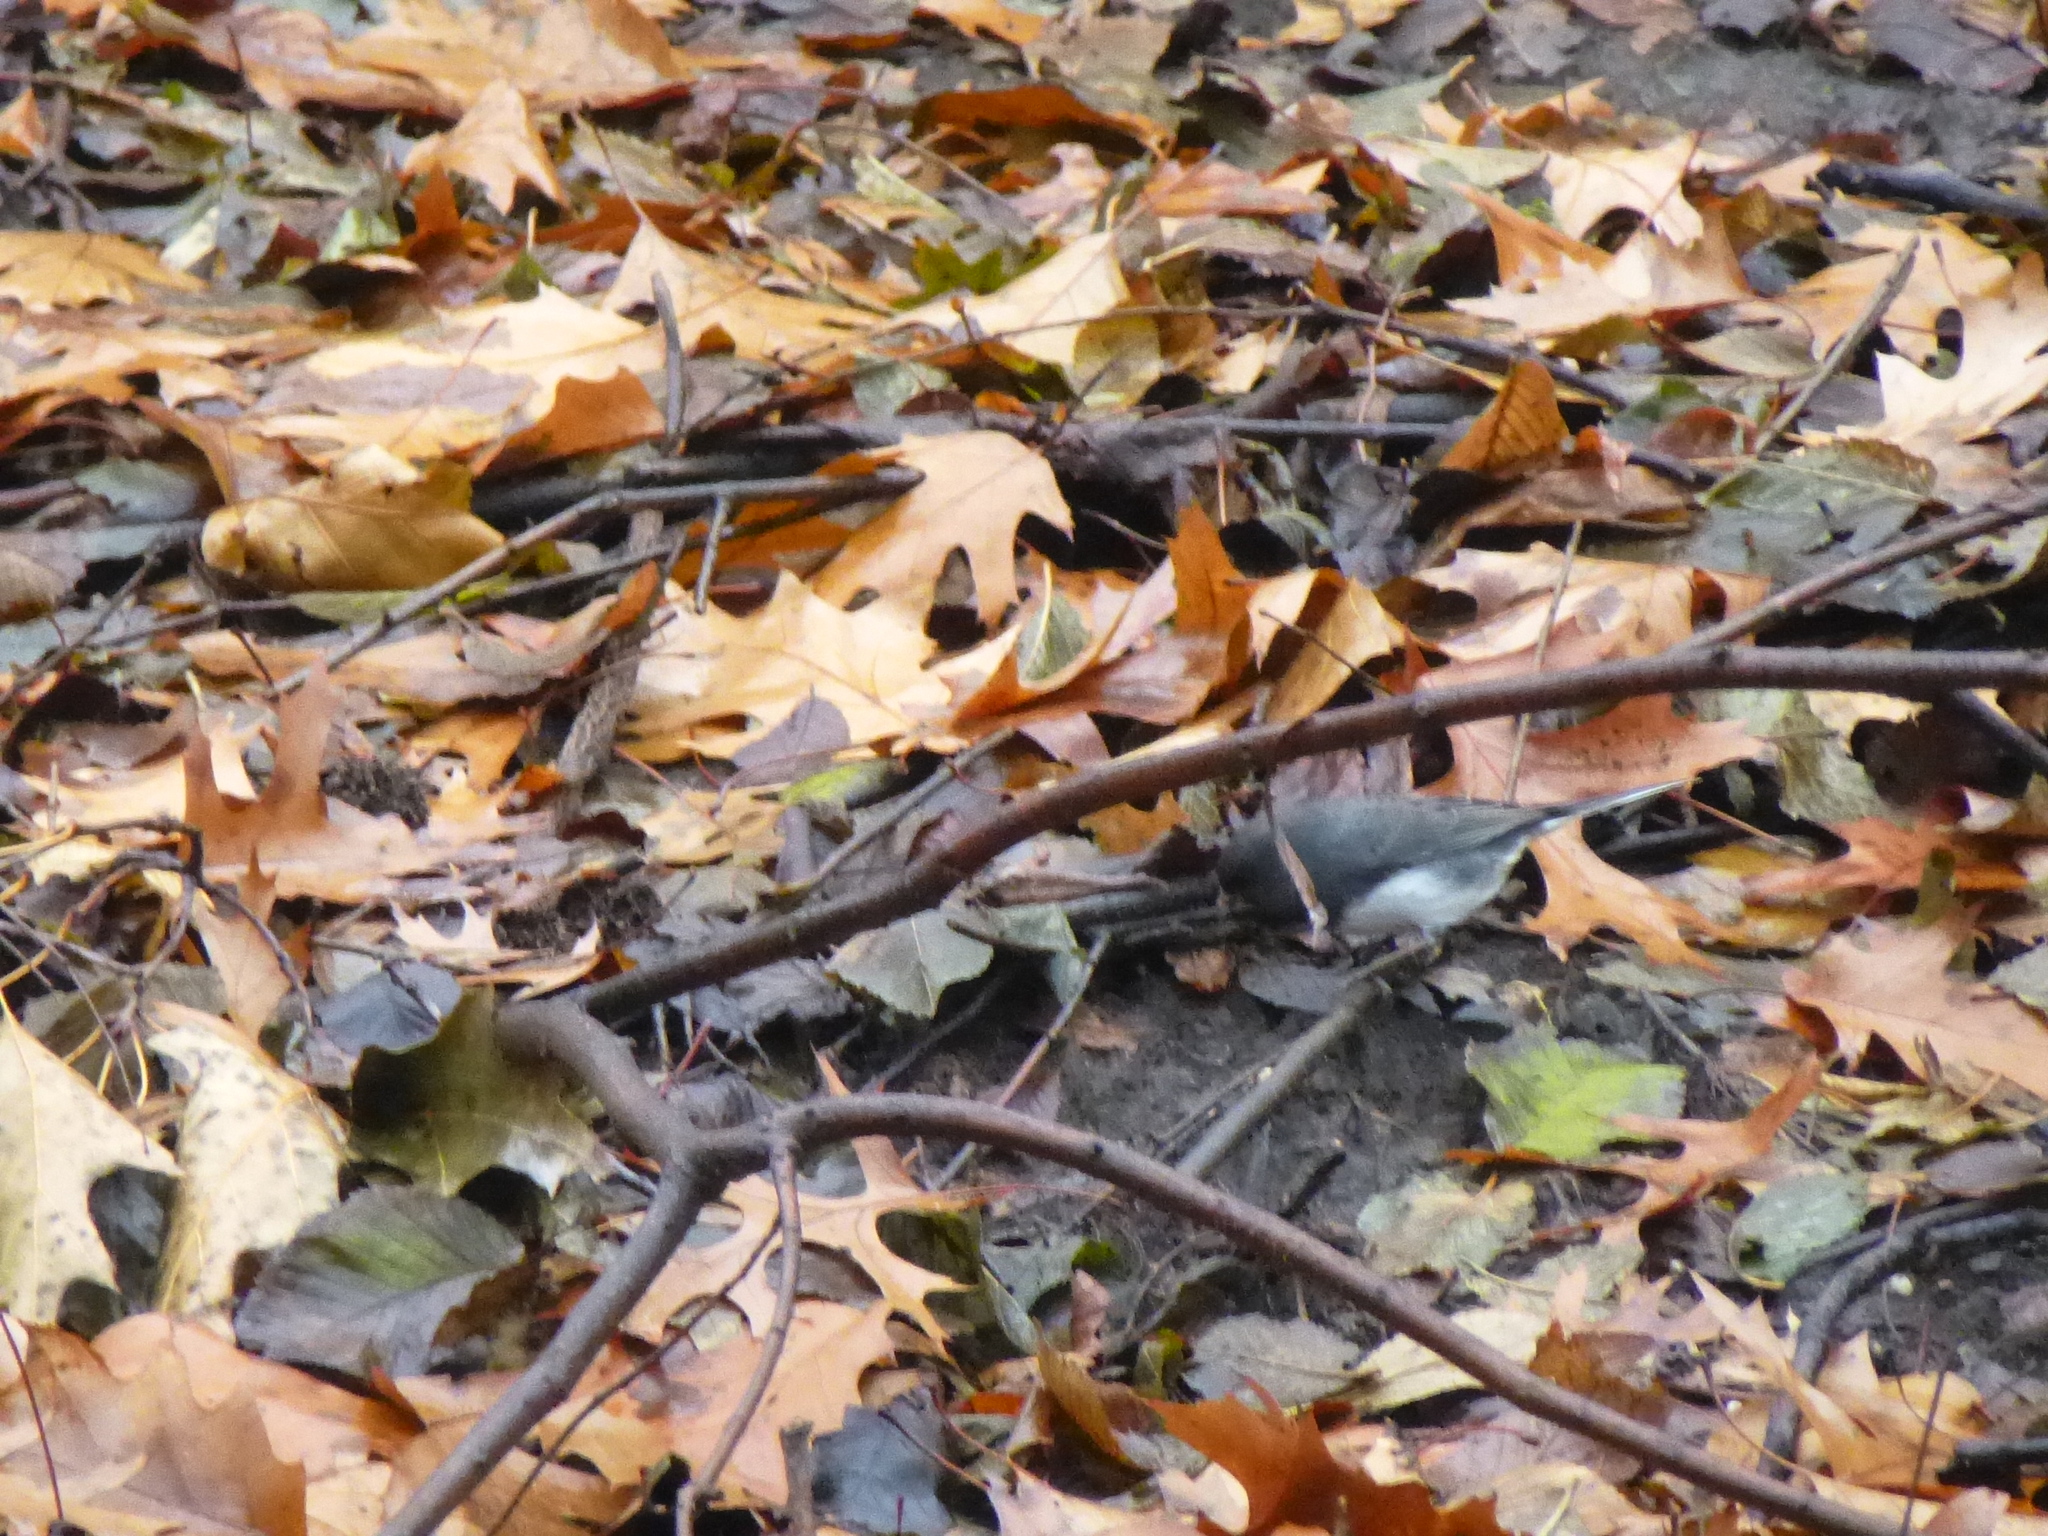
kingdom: Animalia
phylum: Chordata
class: Aves
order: Passeriformes
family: Passerellidae
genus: Junco
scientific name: Junco hyemalis
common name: Dark-eyed junco
